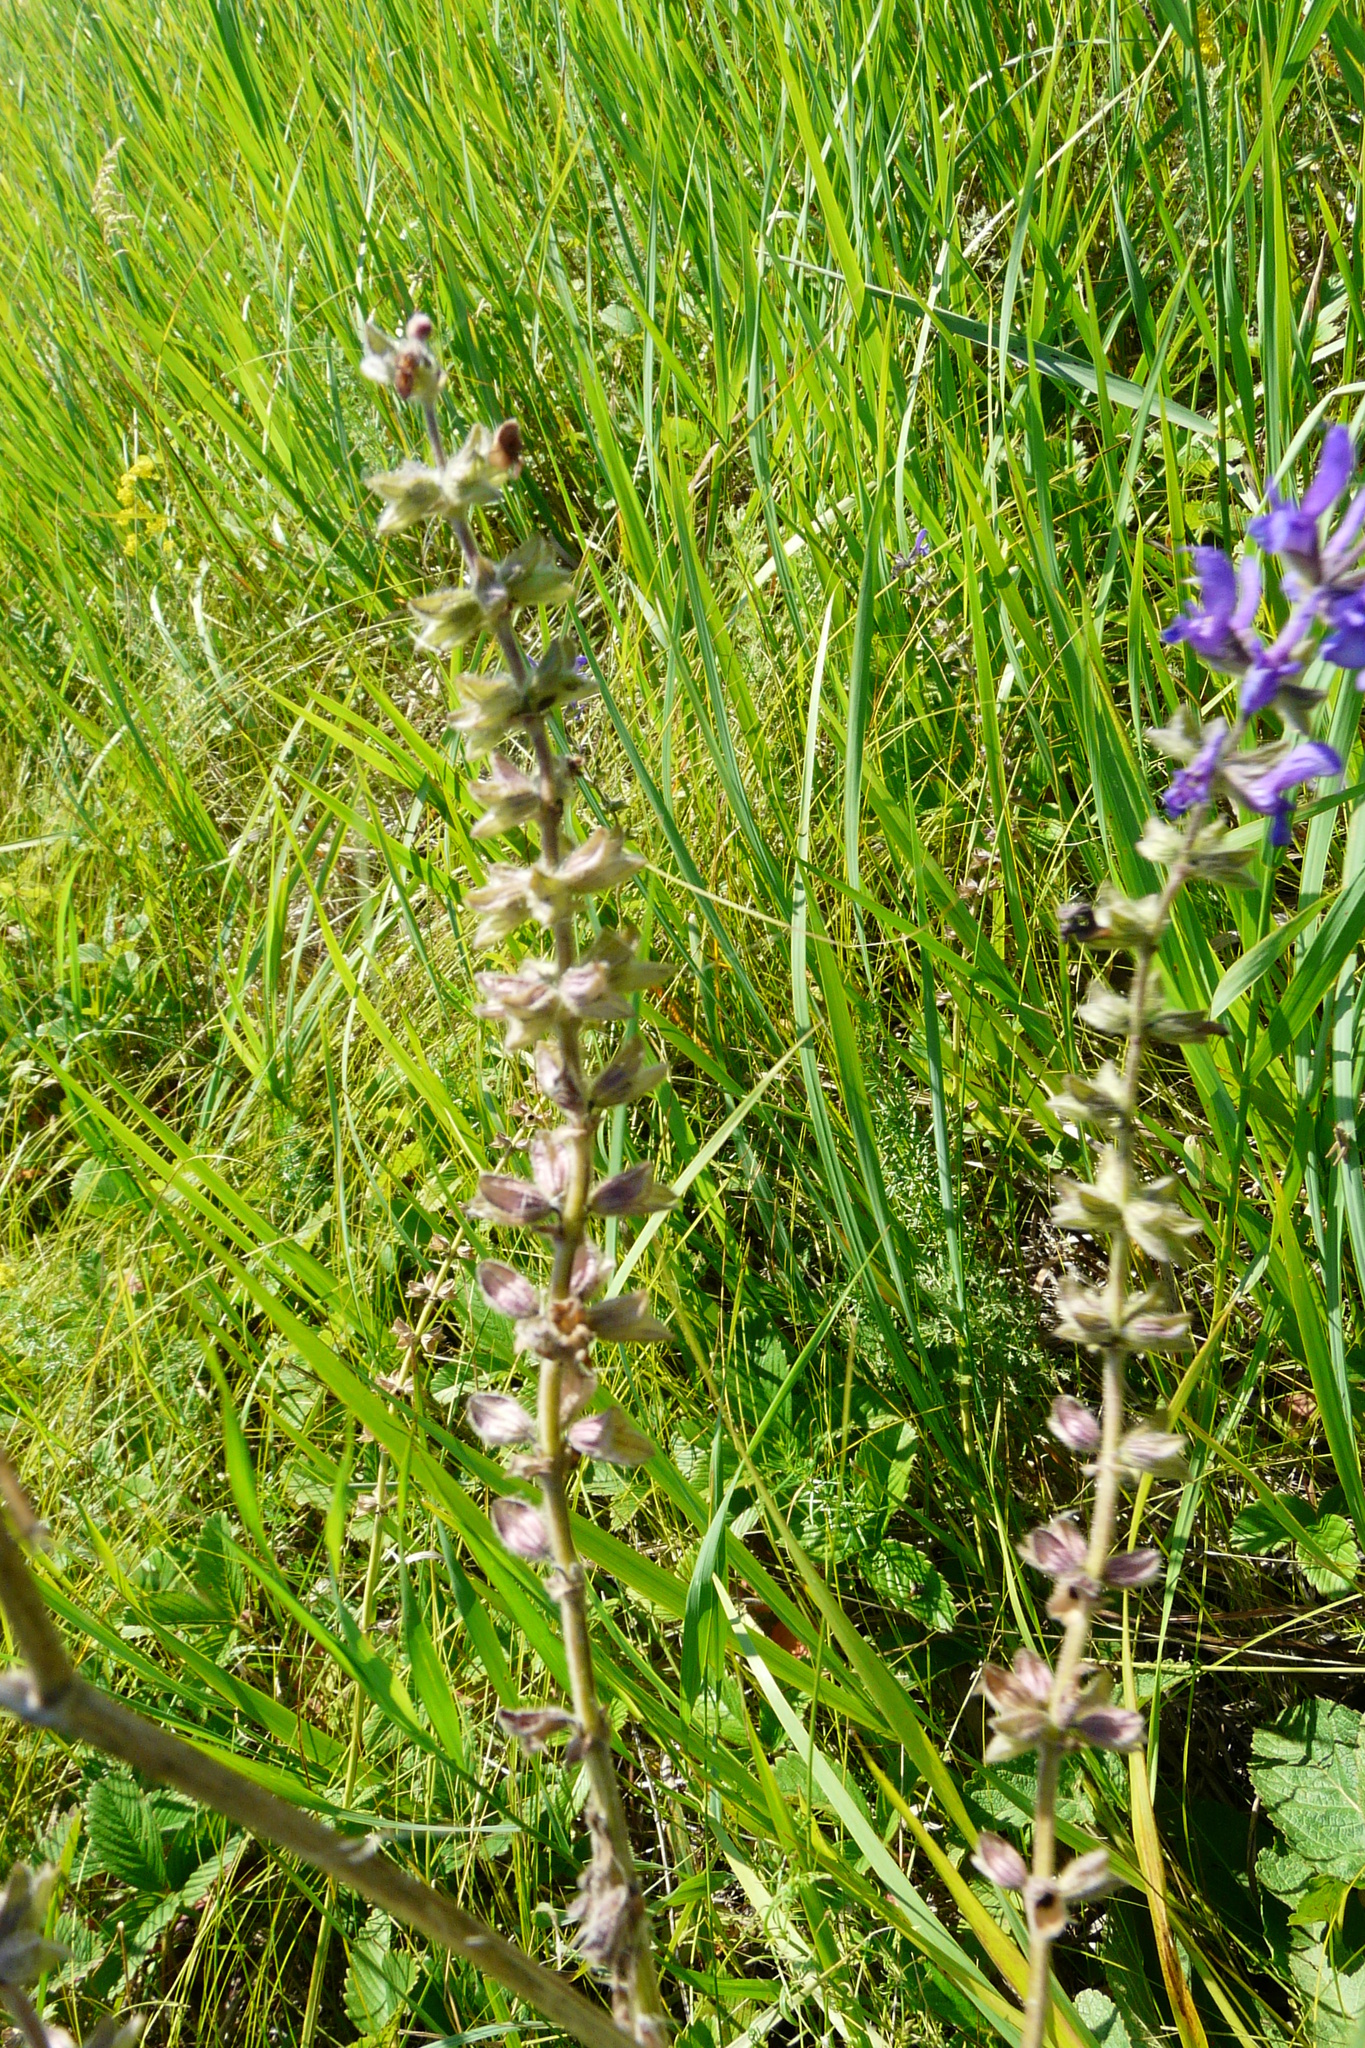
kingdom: Plantae
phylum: Tracheophyta
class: Magnoliopsida
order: Lamiales
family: Lamiaceae
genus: Salvia
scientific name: Salvia dumetorum
